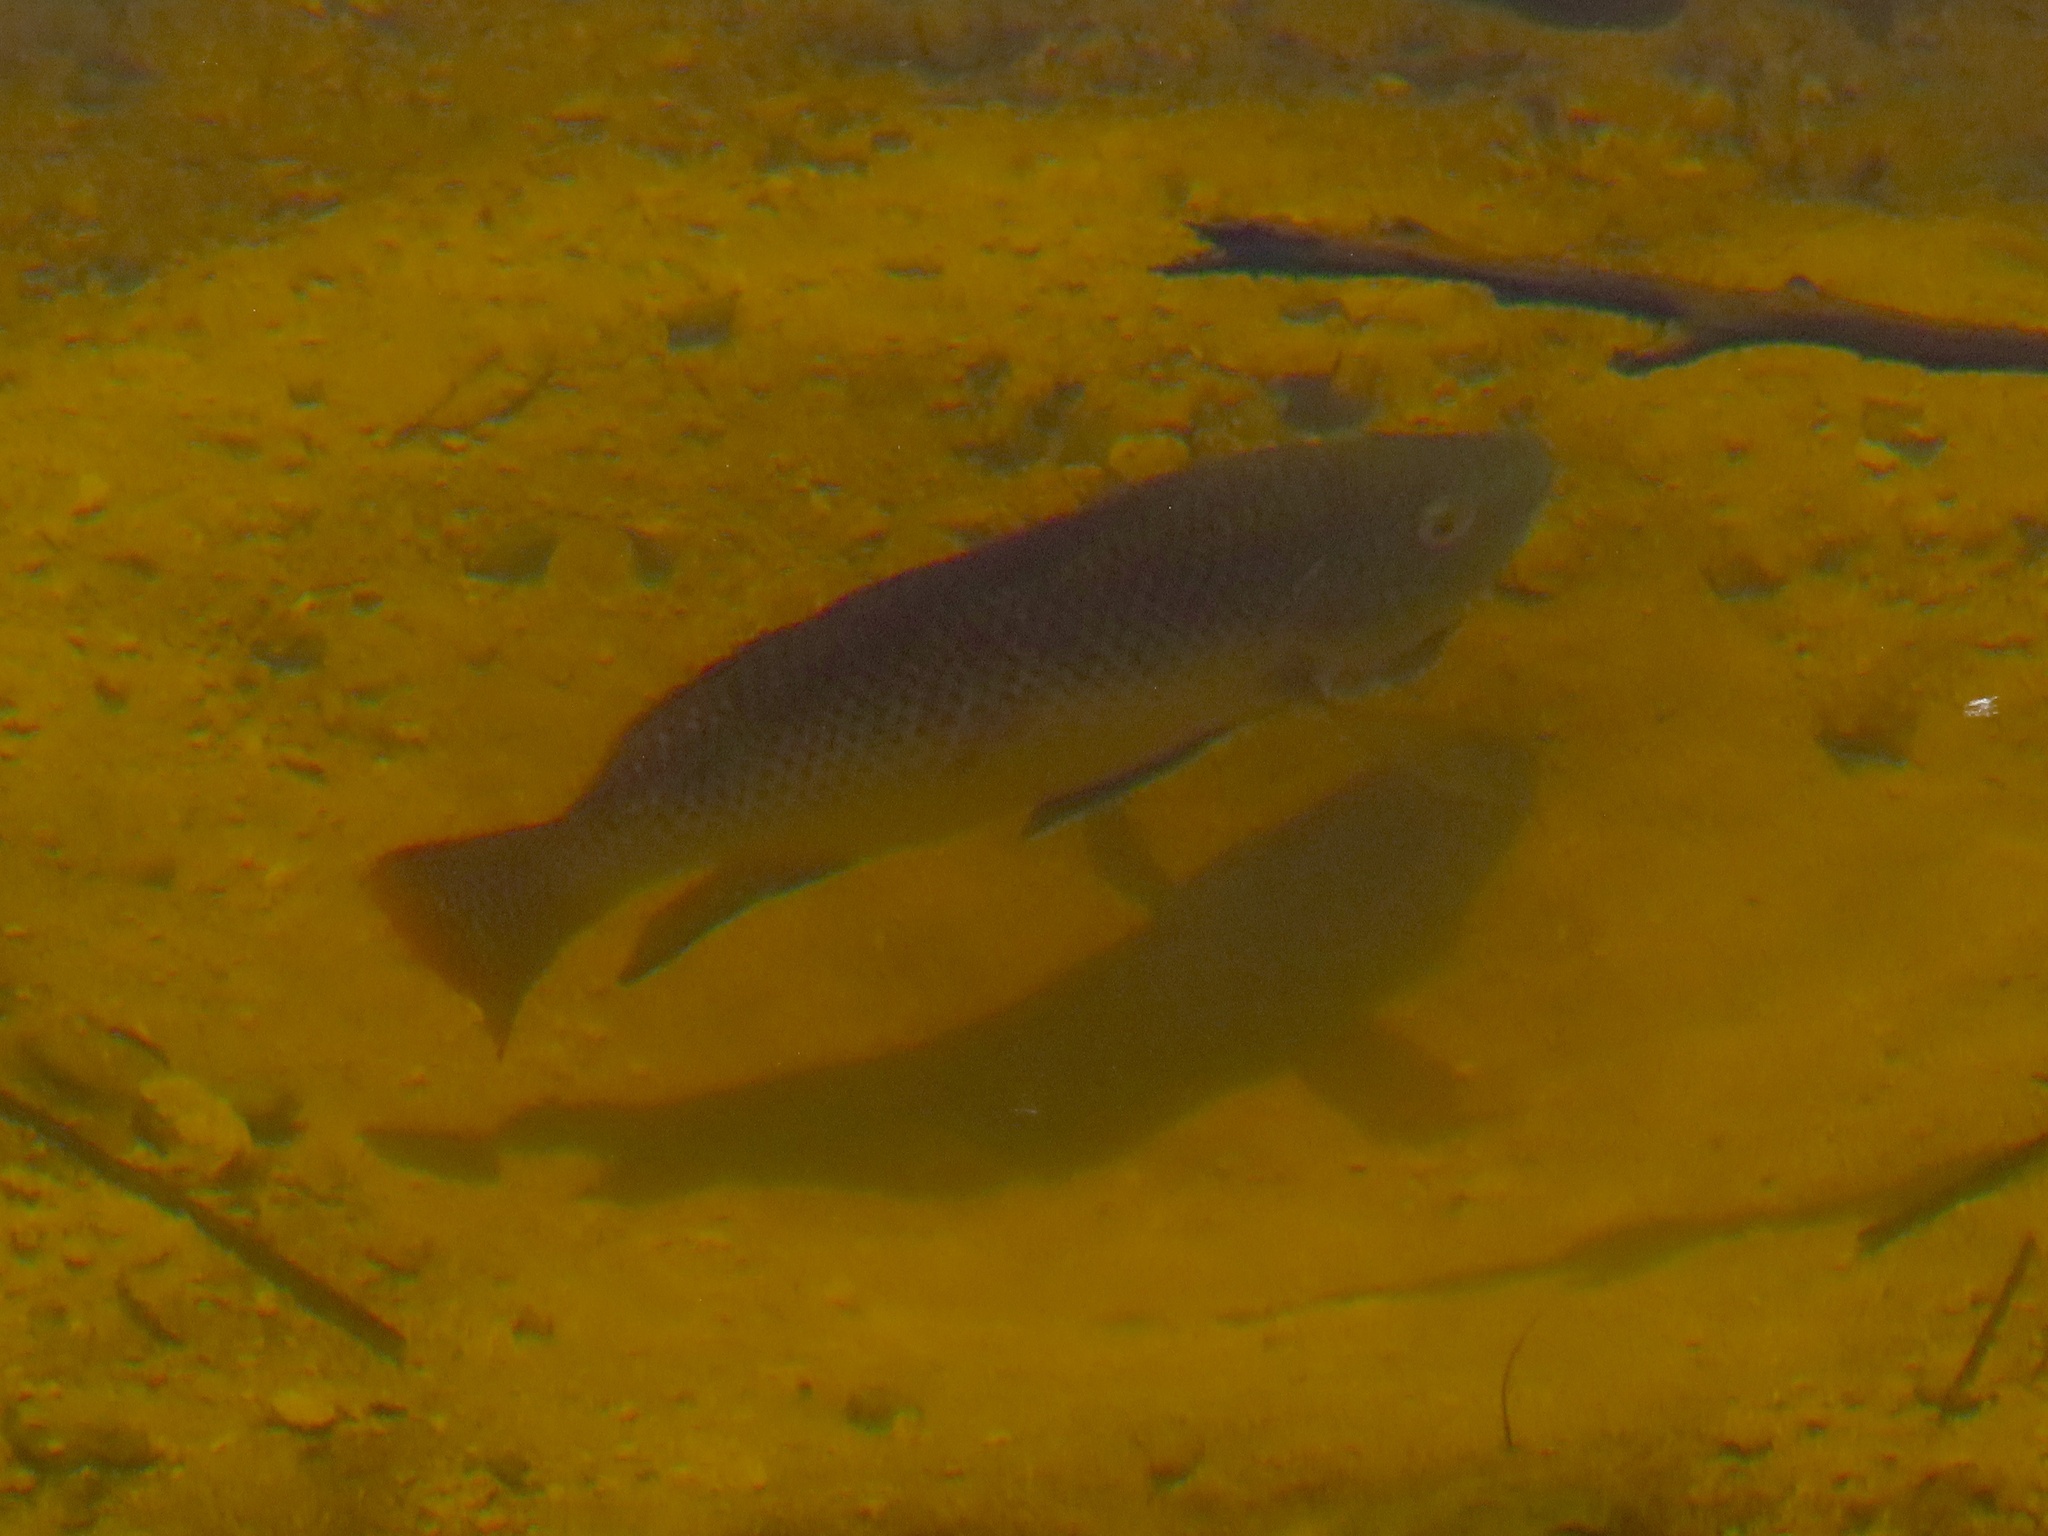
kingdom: Animalia
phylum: Chordata
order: Perciformes
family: Cichlidae
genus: Oreochromis
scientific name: Oreochromis aureus
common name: Blue tilapia
